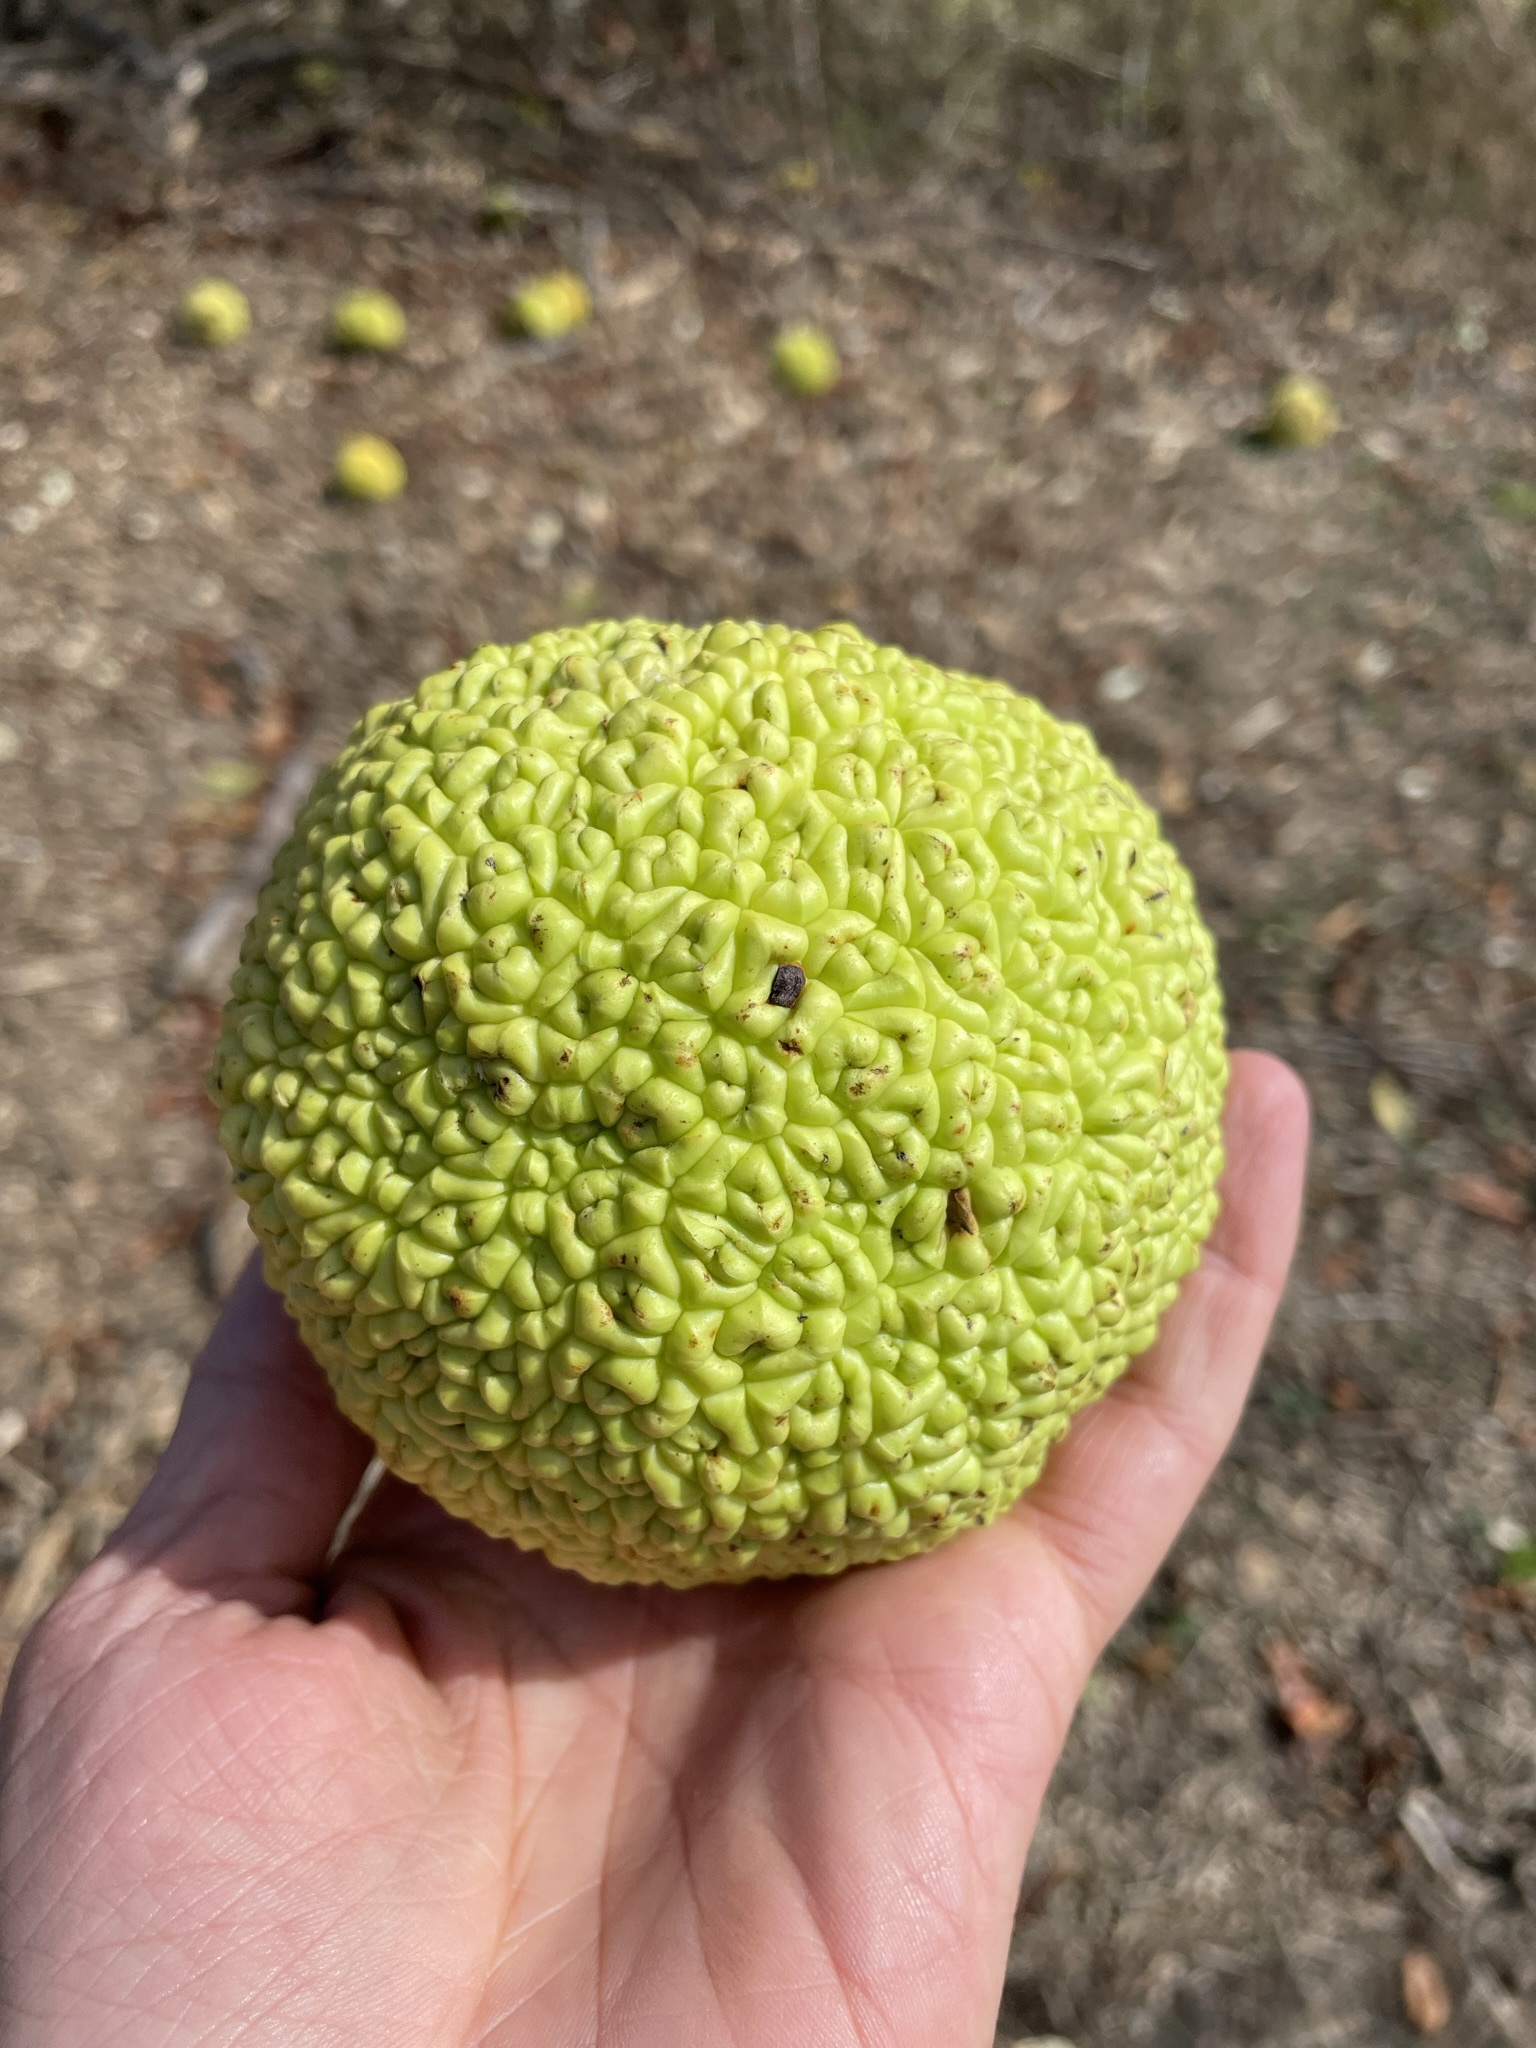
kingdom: Plantae
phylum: Tracheophyta
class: Magnoliopsida
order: Rosales
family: Moraceae
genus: Maclura
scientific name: Maclura pomifera
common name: Osage-orange
